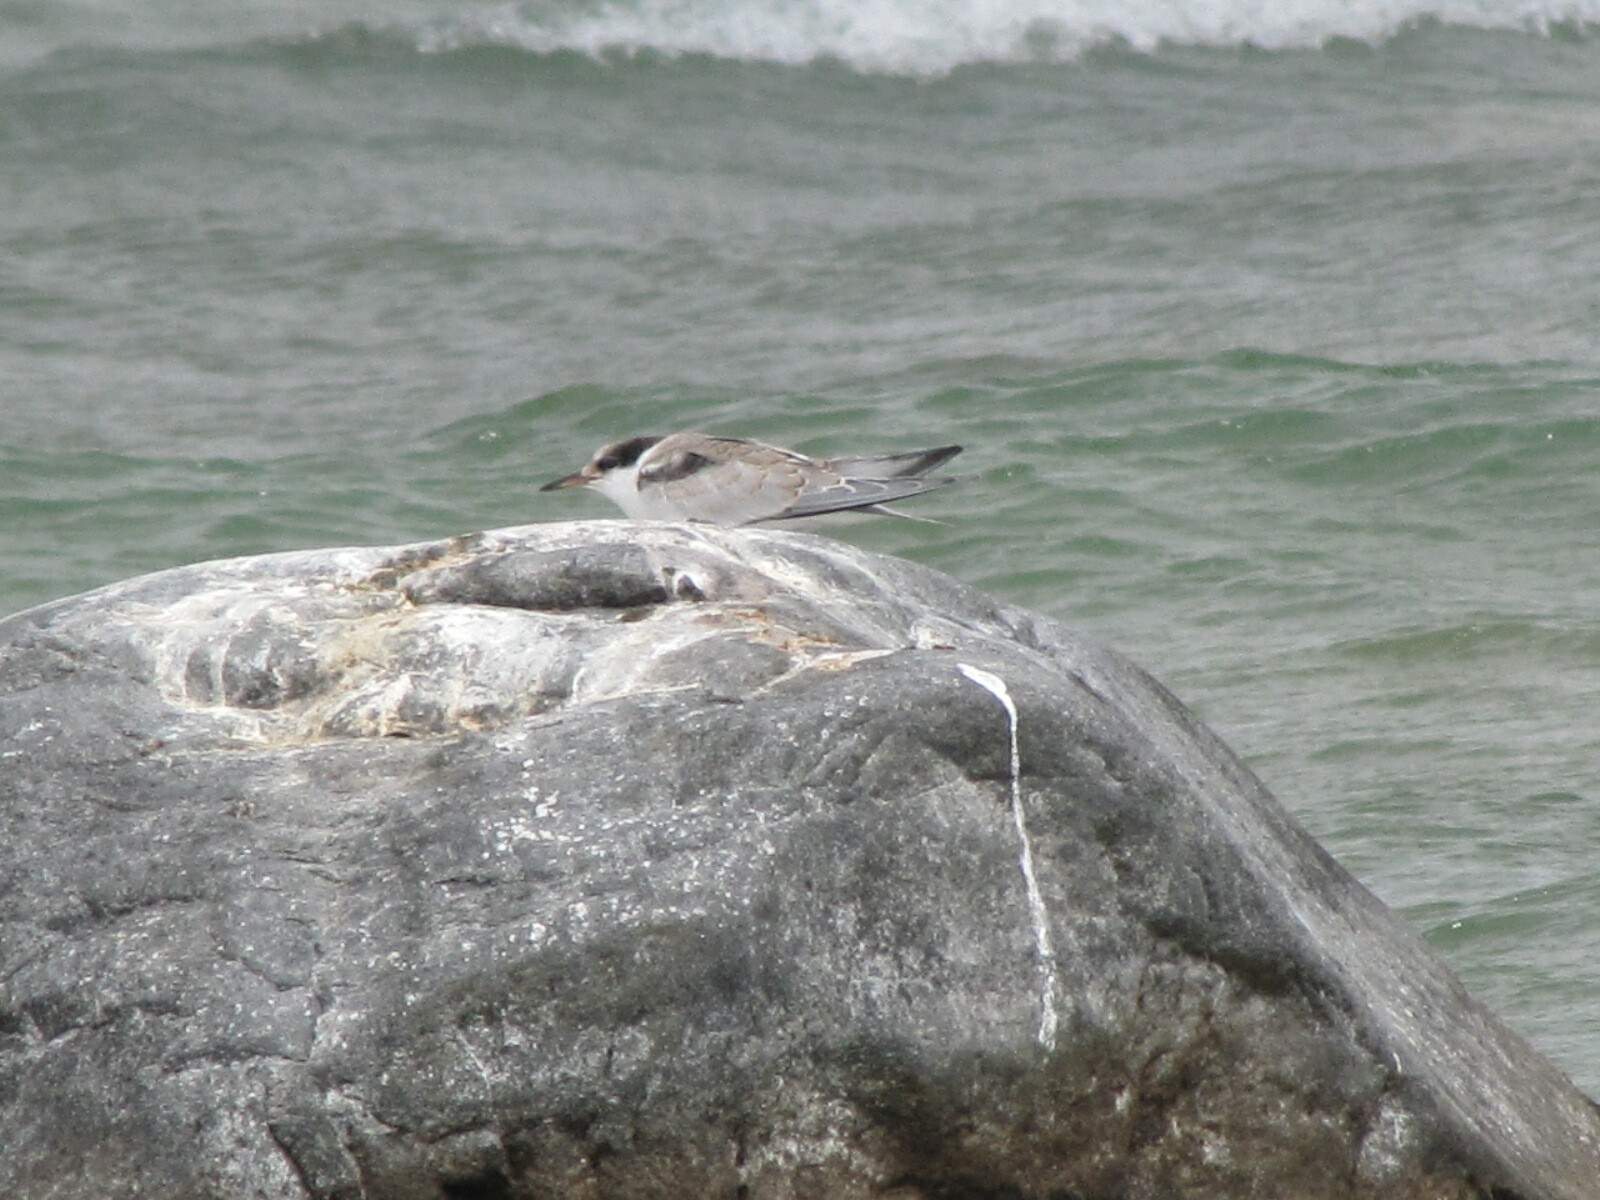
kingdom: Animalia
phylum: Chordata
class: Aves
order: Charadriiformes
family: Laridae
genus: Sterna
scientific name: Sterna hirundo
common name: Common tern
